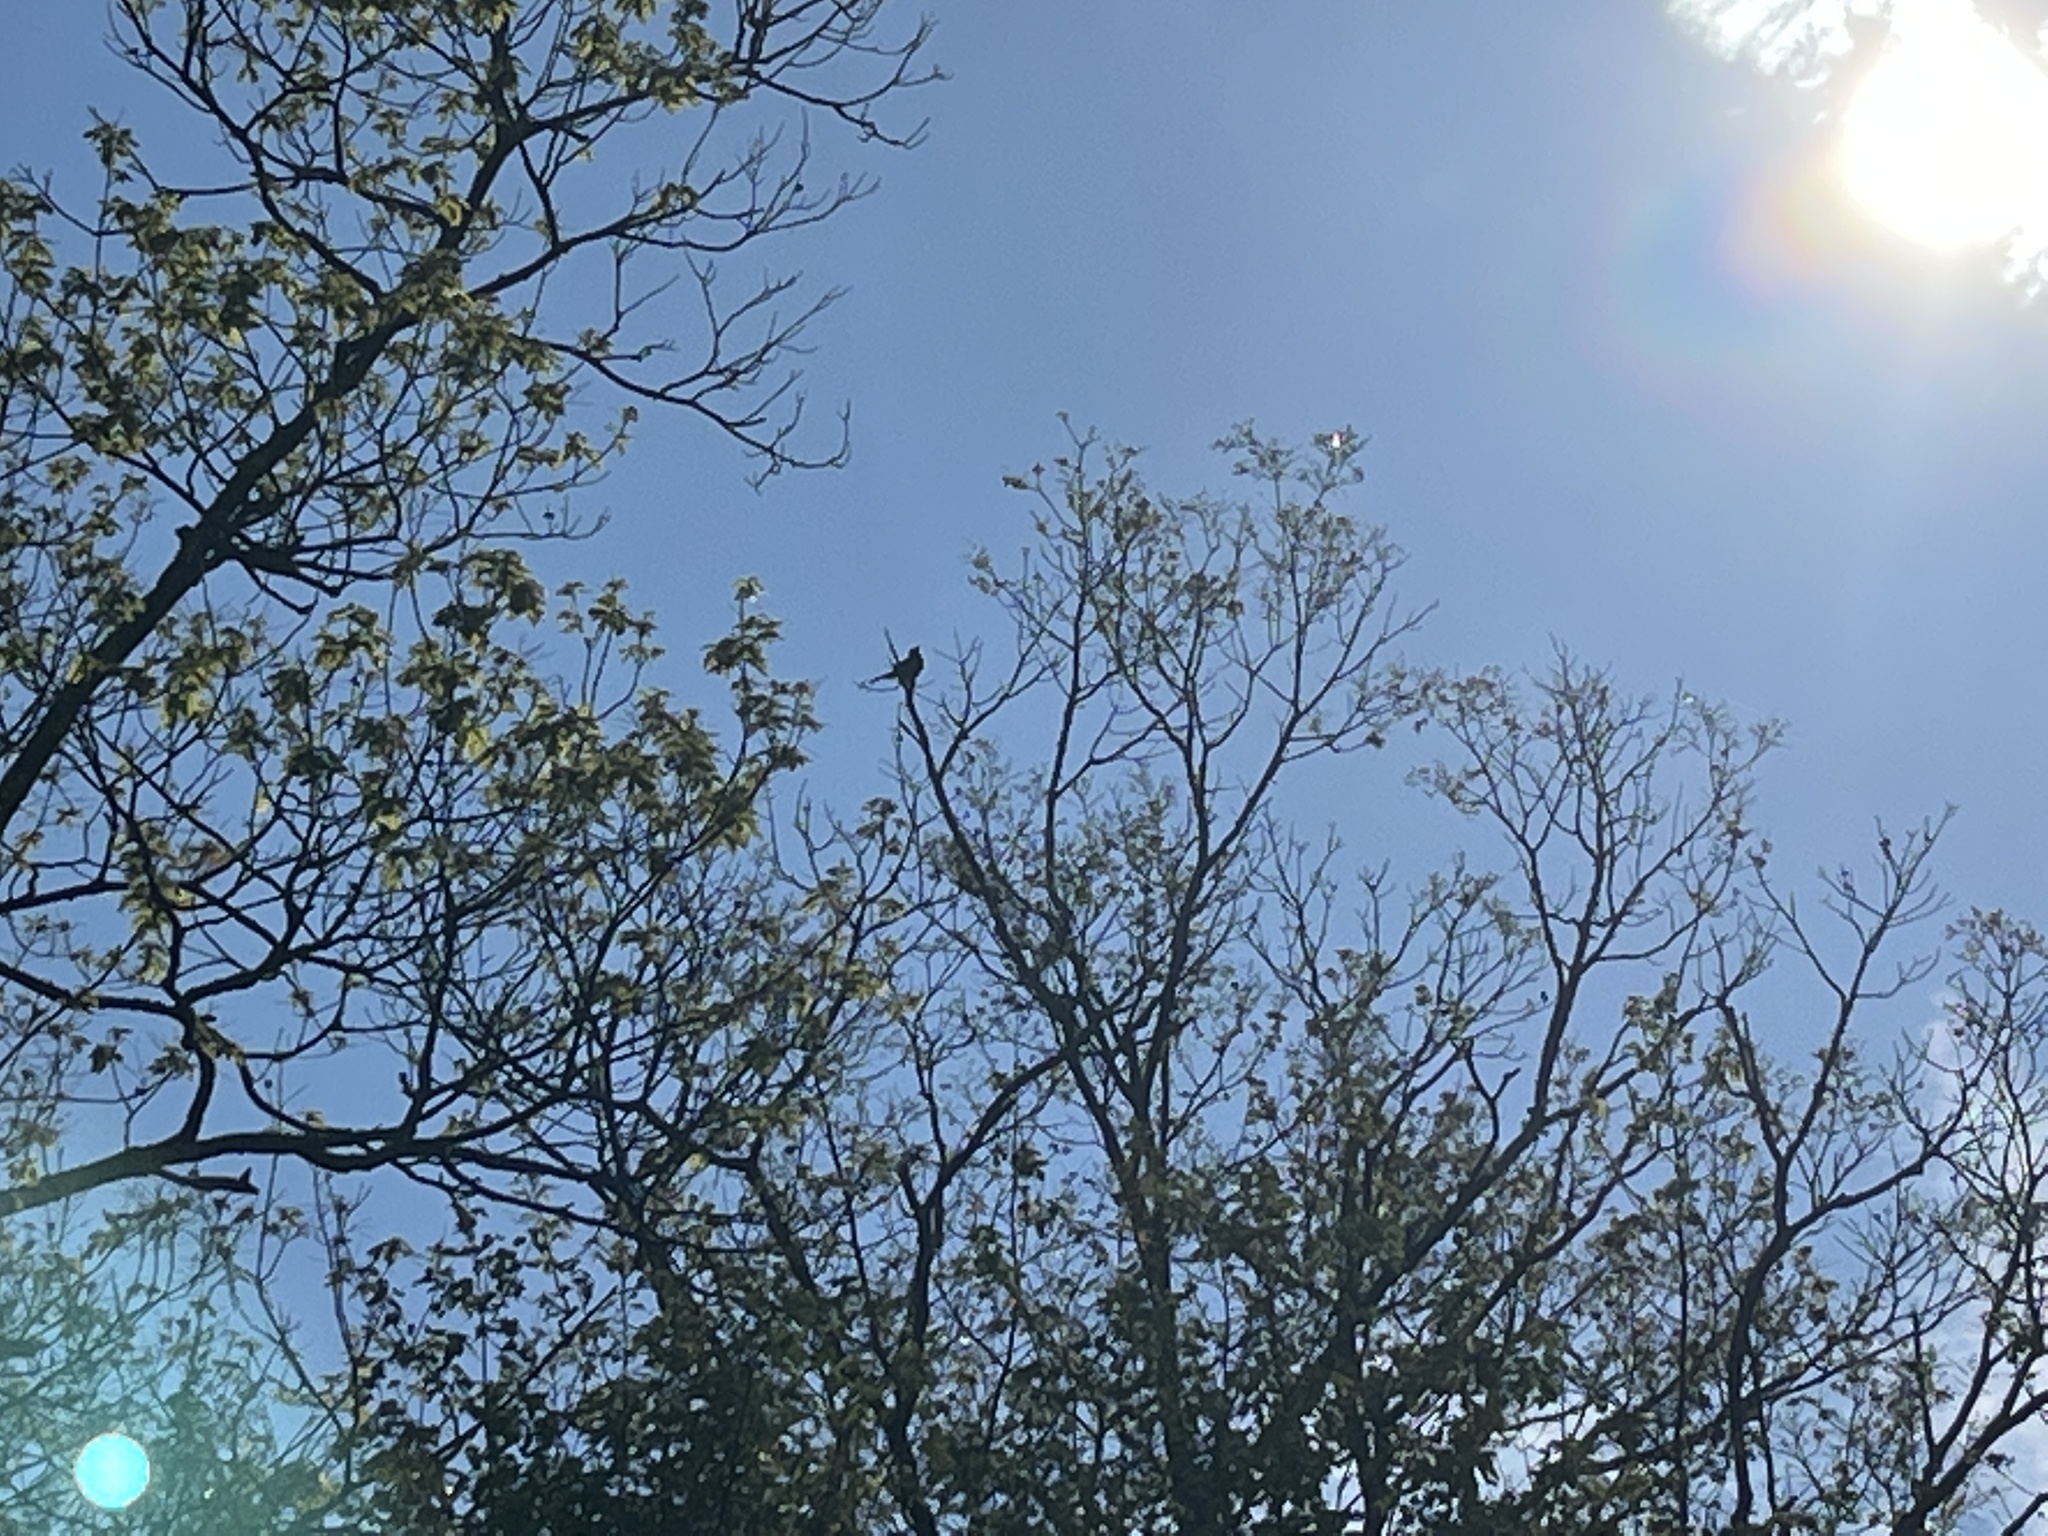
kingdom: Animalia
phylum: Chordata
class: Aves
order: Passeriformes
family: Icteridae
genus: Quiscalus
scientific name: Quiscalus quiscula
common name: Common grackle
